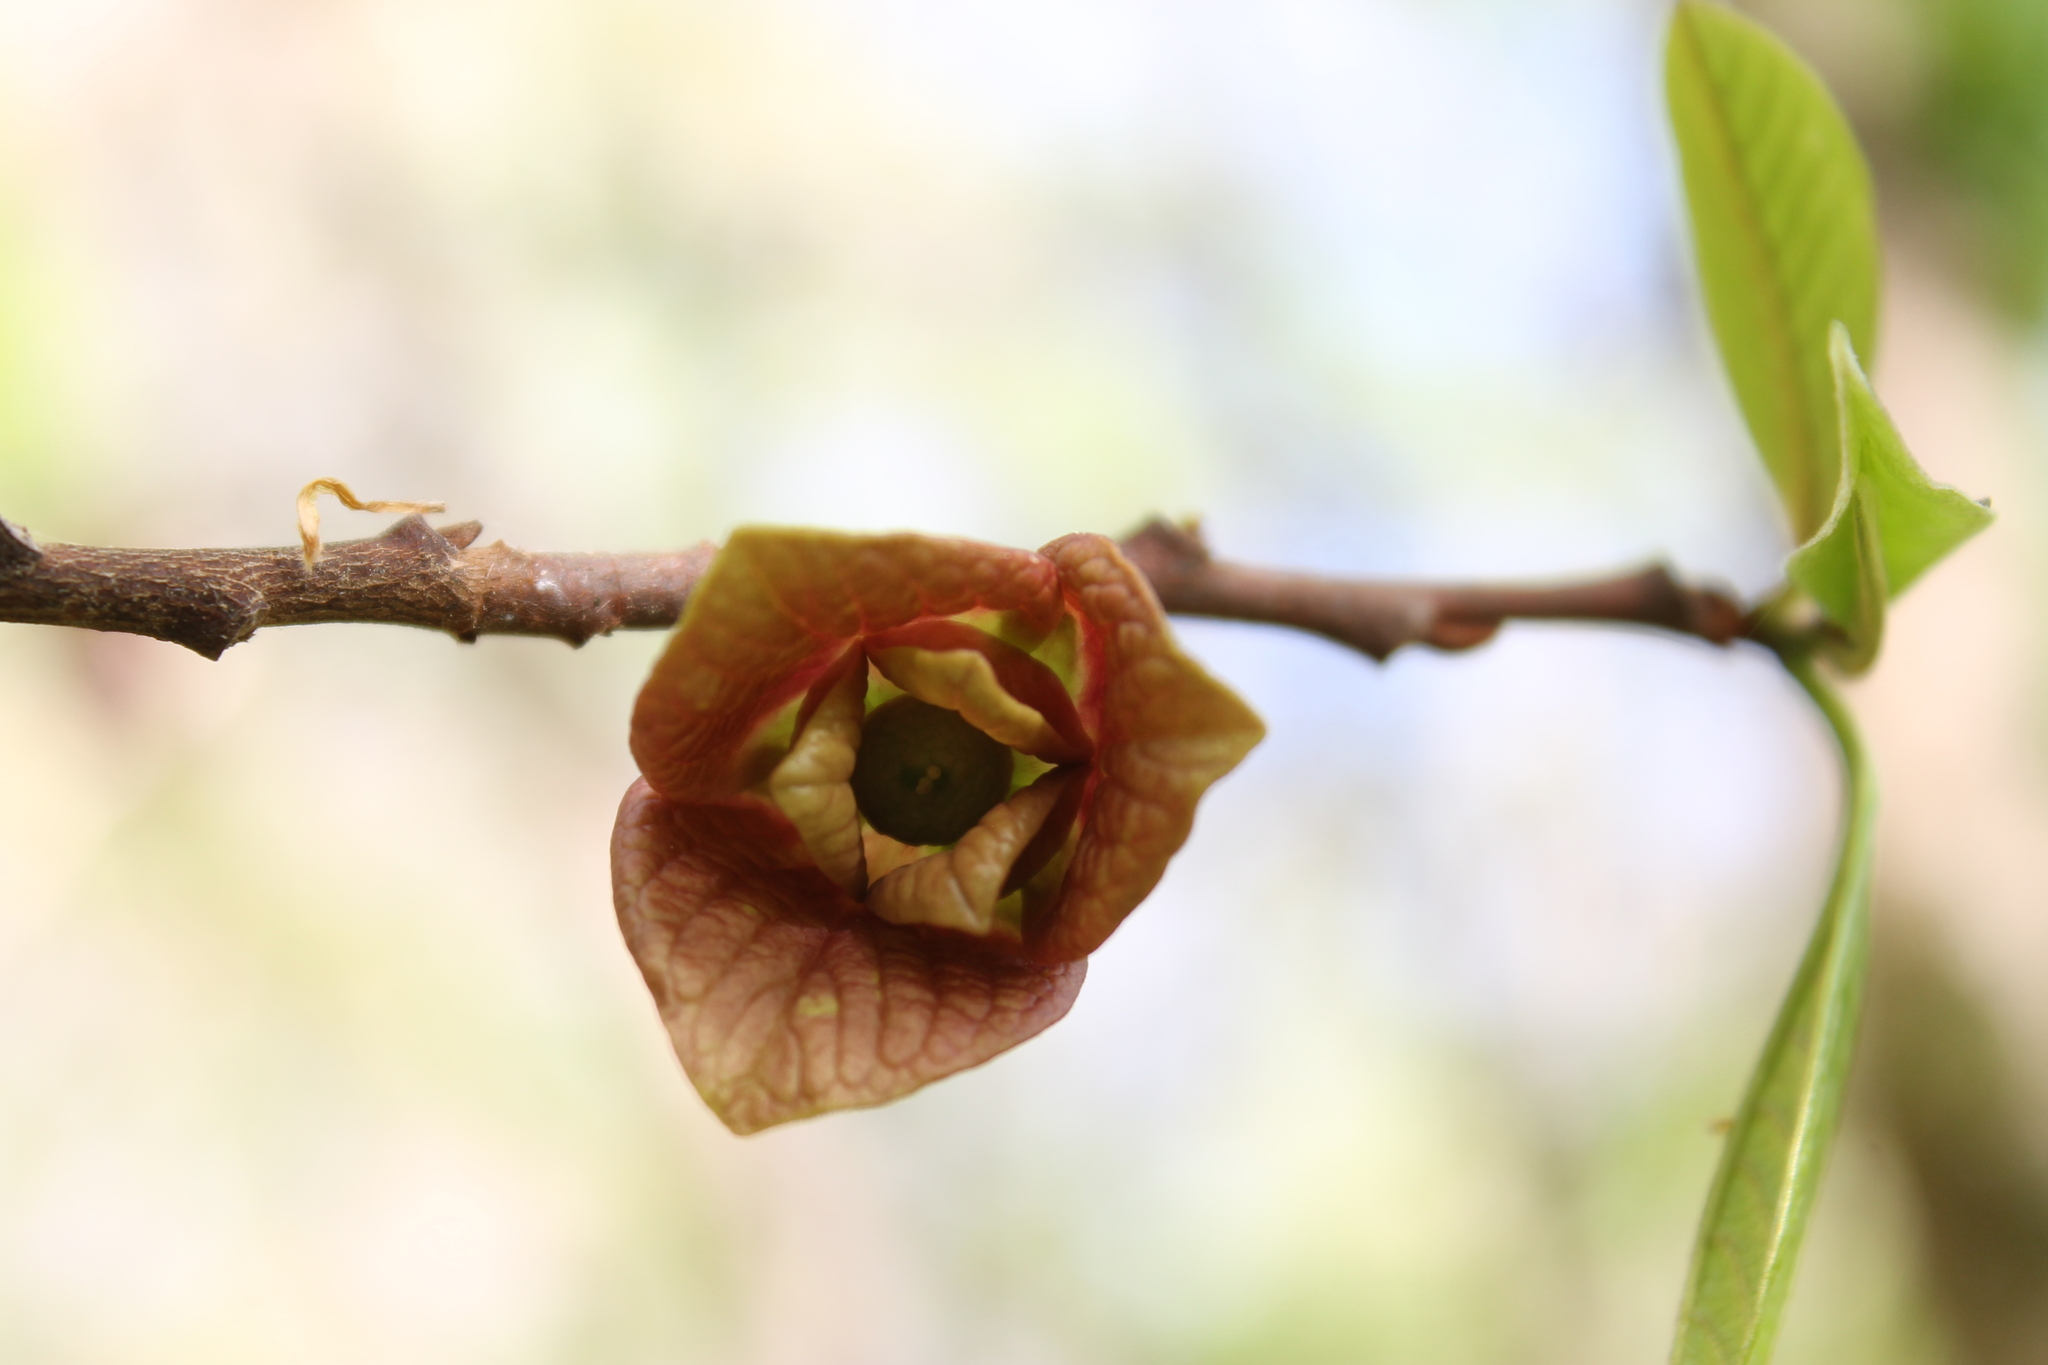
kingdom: Plantae
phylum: Tracheophyta
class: Magnoliopsida
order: Magnoliales
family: Annonaceae
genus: Asimina
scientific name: Asimina triloba
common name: Dog-banana
